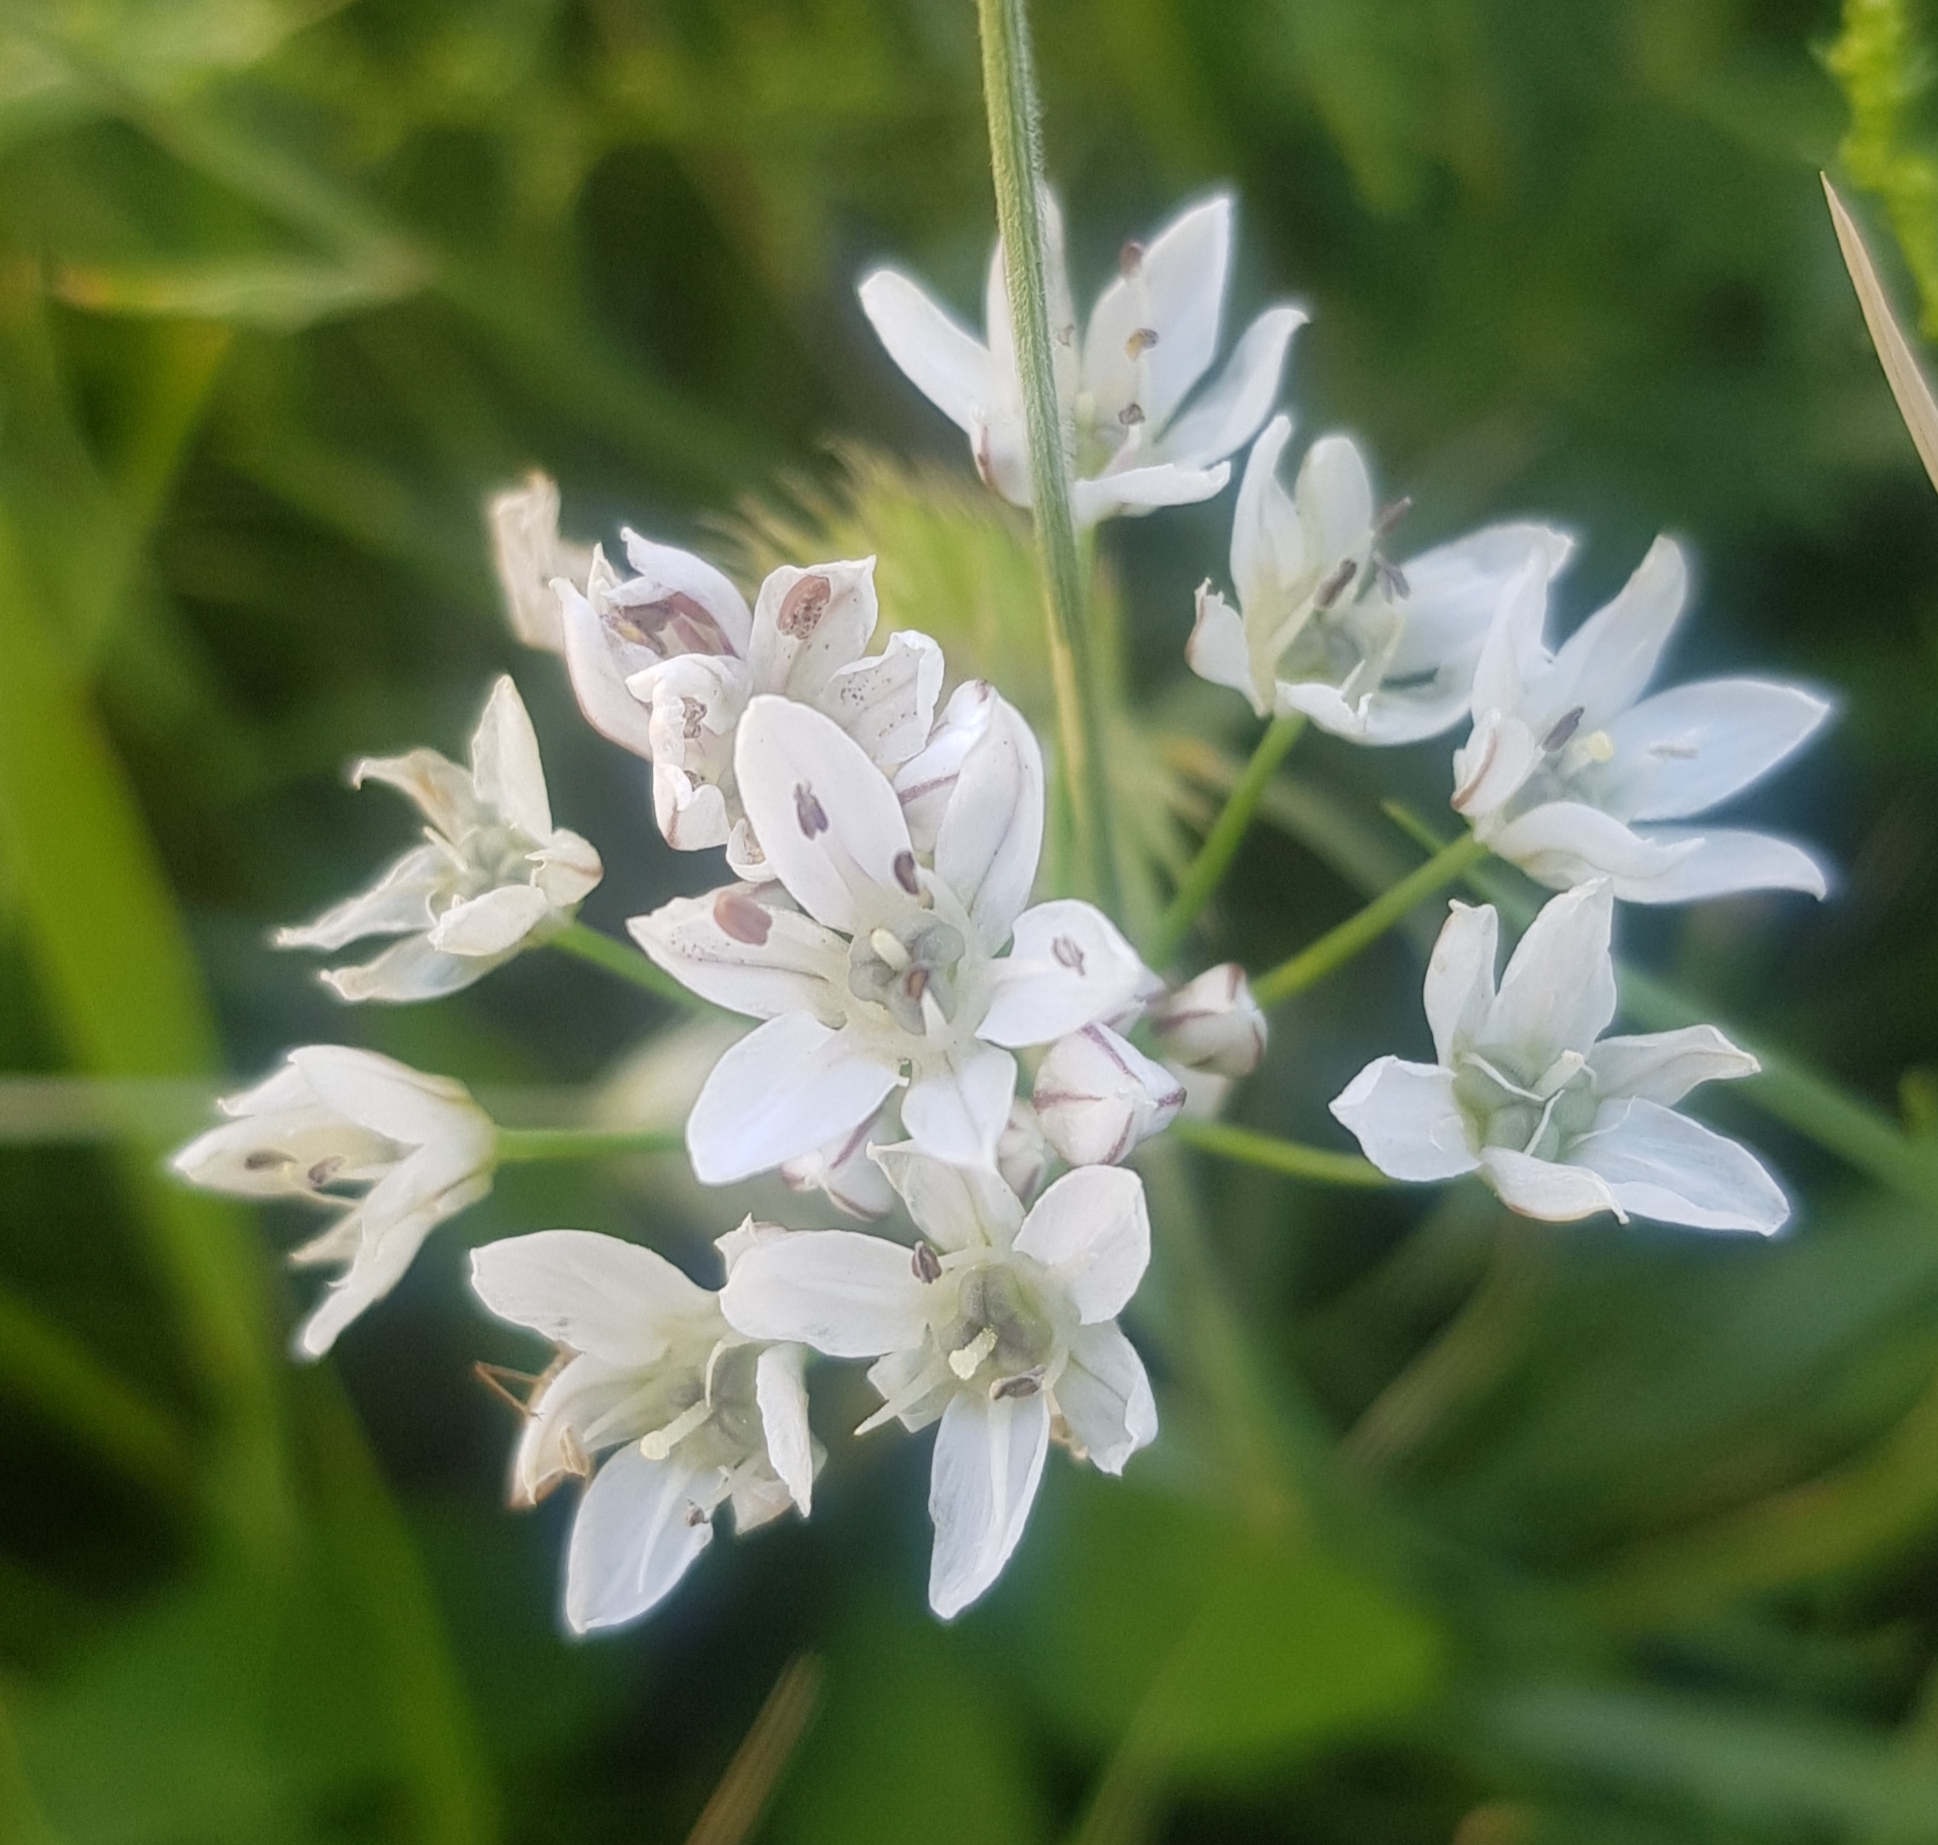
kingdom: Plantae
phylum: Tracheophyta
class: Liliopsida
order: Asparagales
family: Amaryllidaceae
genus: Allium
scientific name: Allium ramosum
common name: Fragrant garlic
